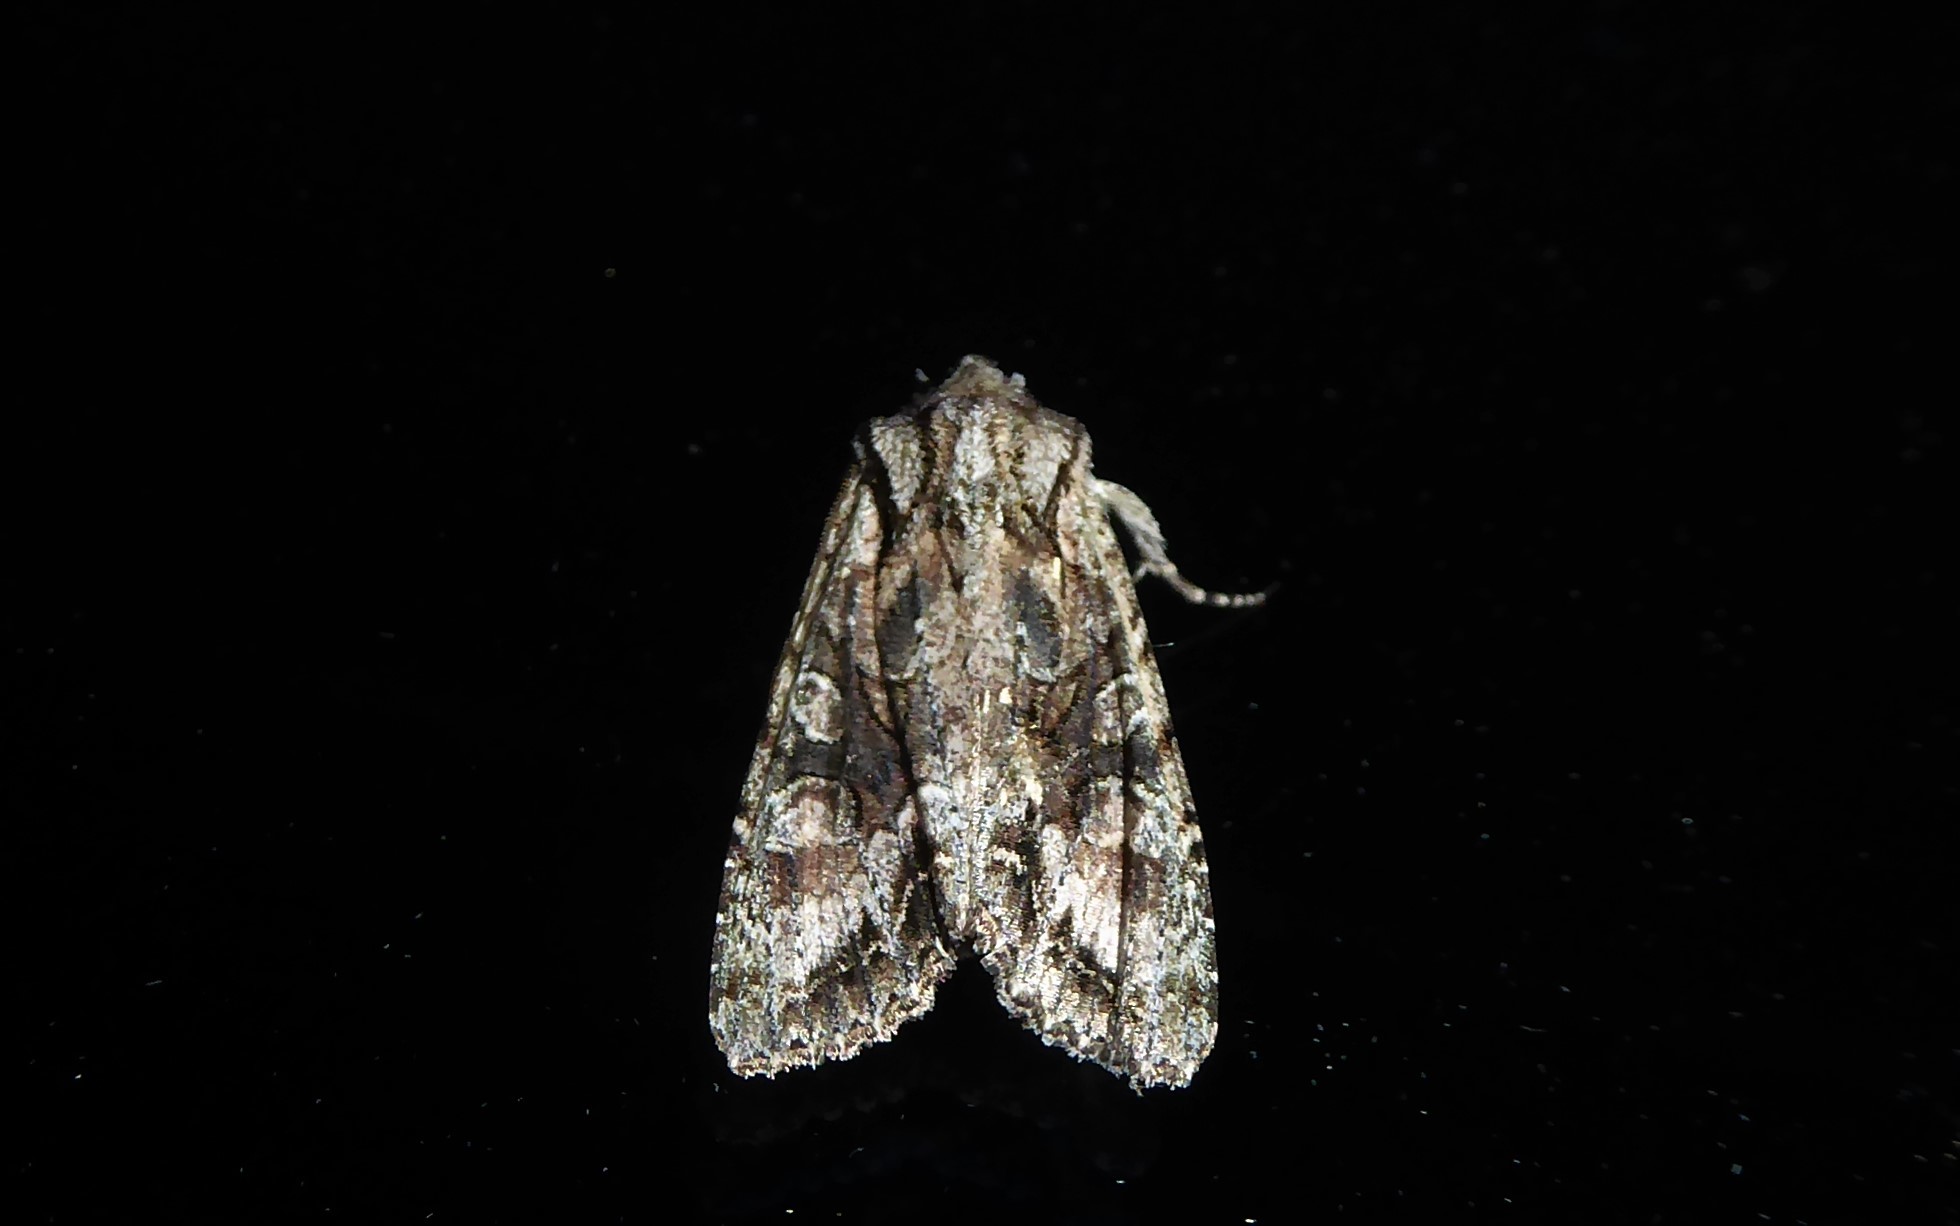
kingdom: Animalia
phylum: Arthropoda
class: Insecta
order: Lepidoptera
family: Noctuidae
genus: Ichneutica
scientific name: Ichneutica mutans
